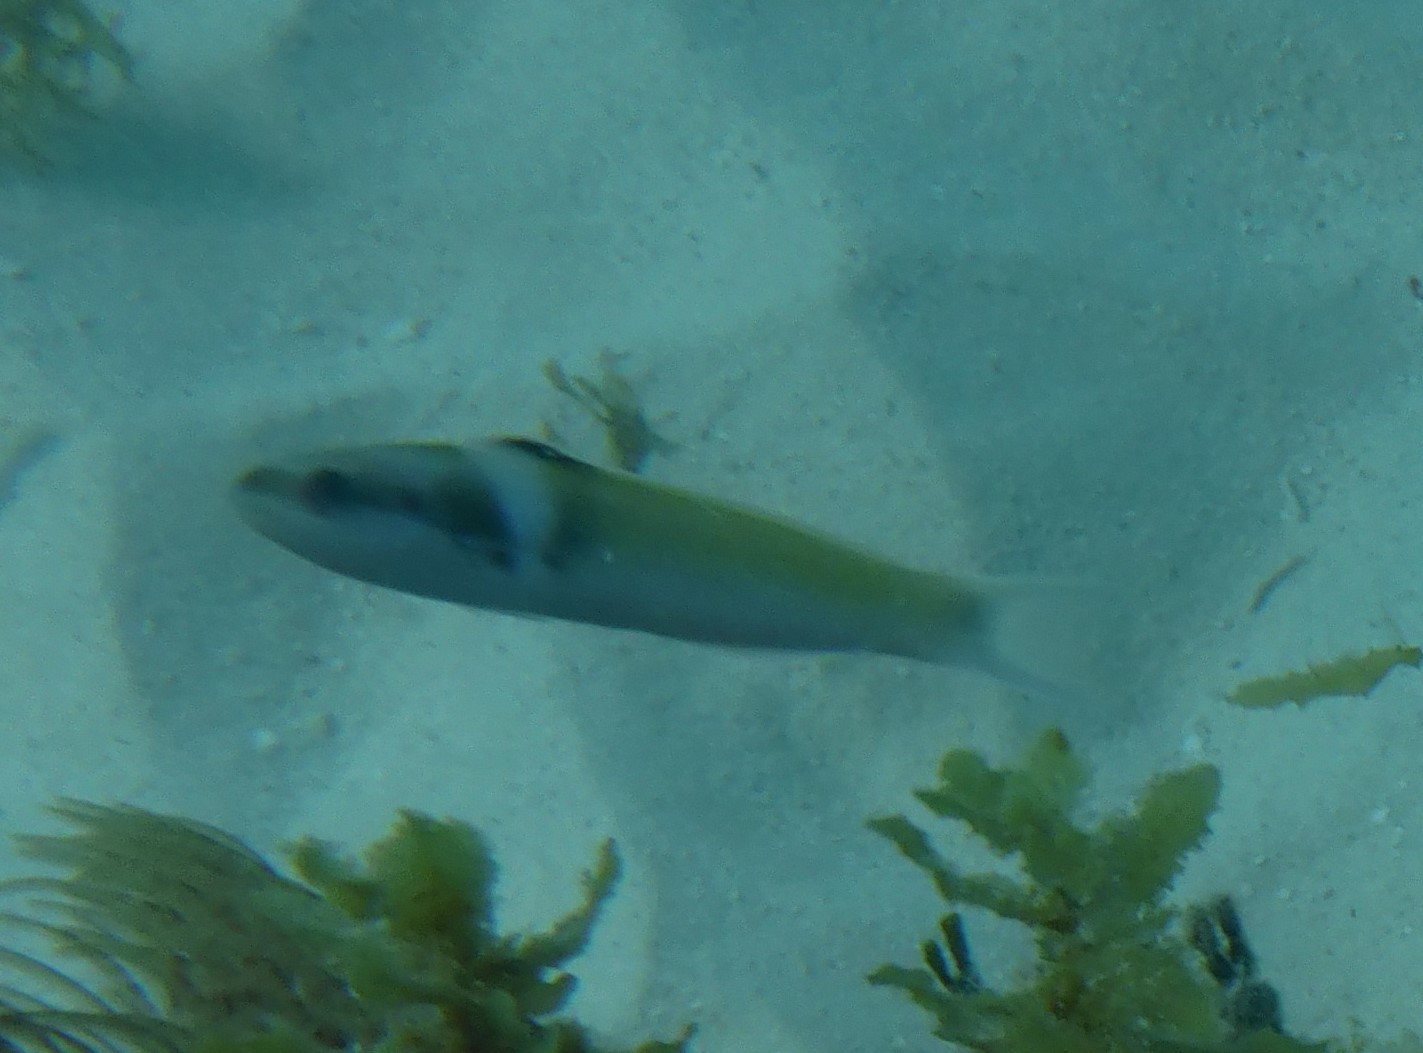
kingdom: Animalia
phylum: Chordata
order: Perciformes
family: Labridae
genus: Thalassoma
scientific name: Thalassoma bifasciatum
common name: Bluehead wrasse
